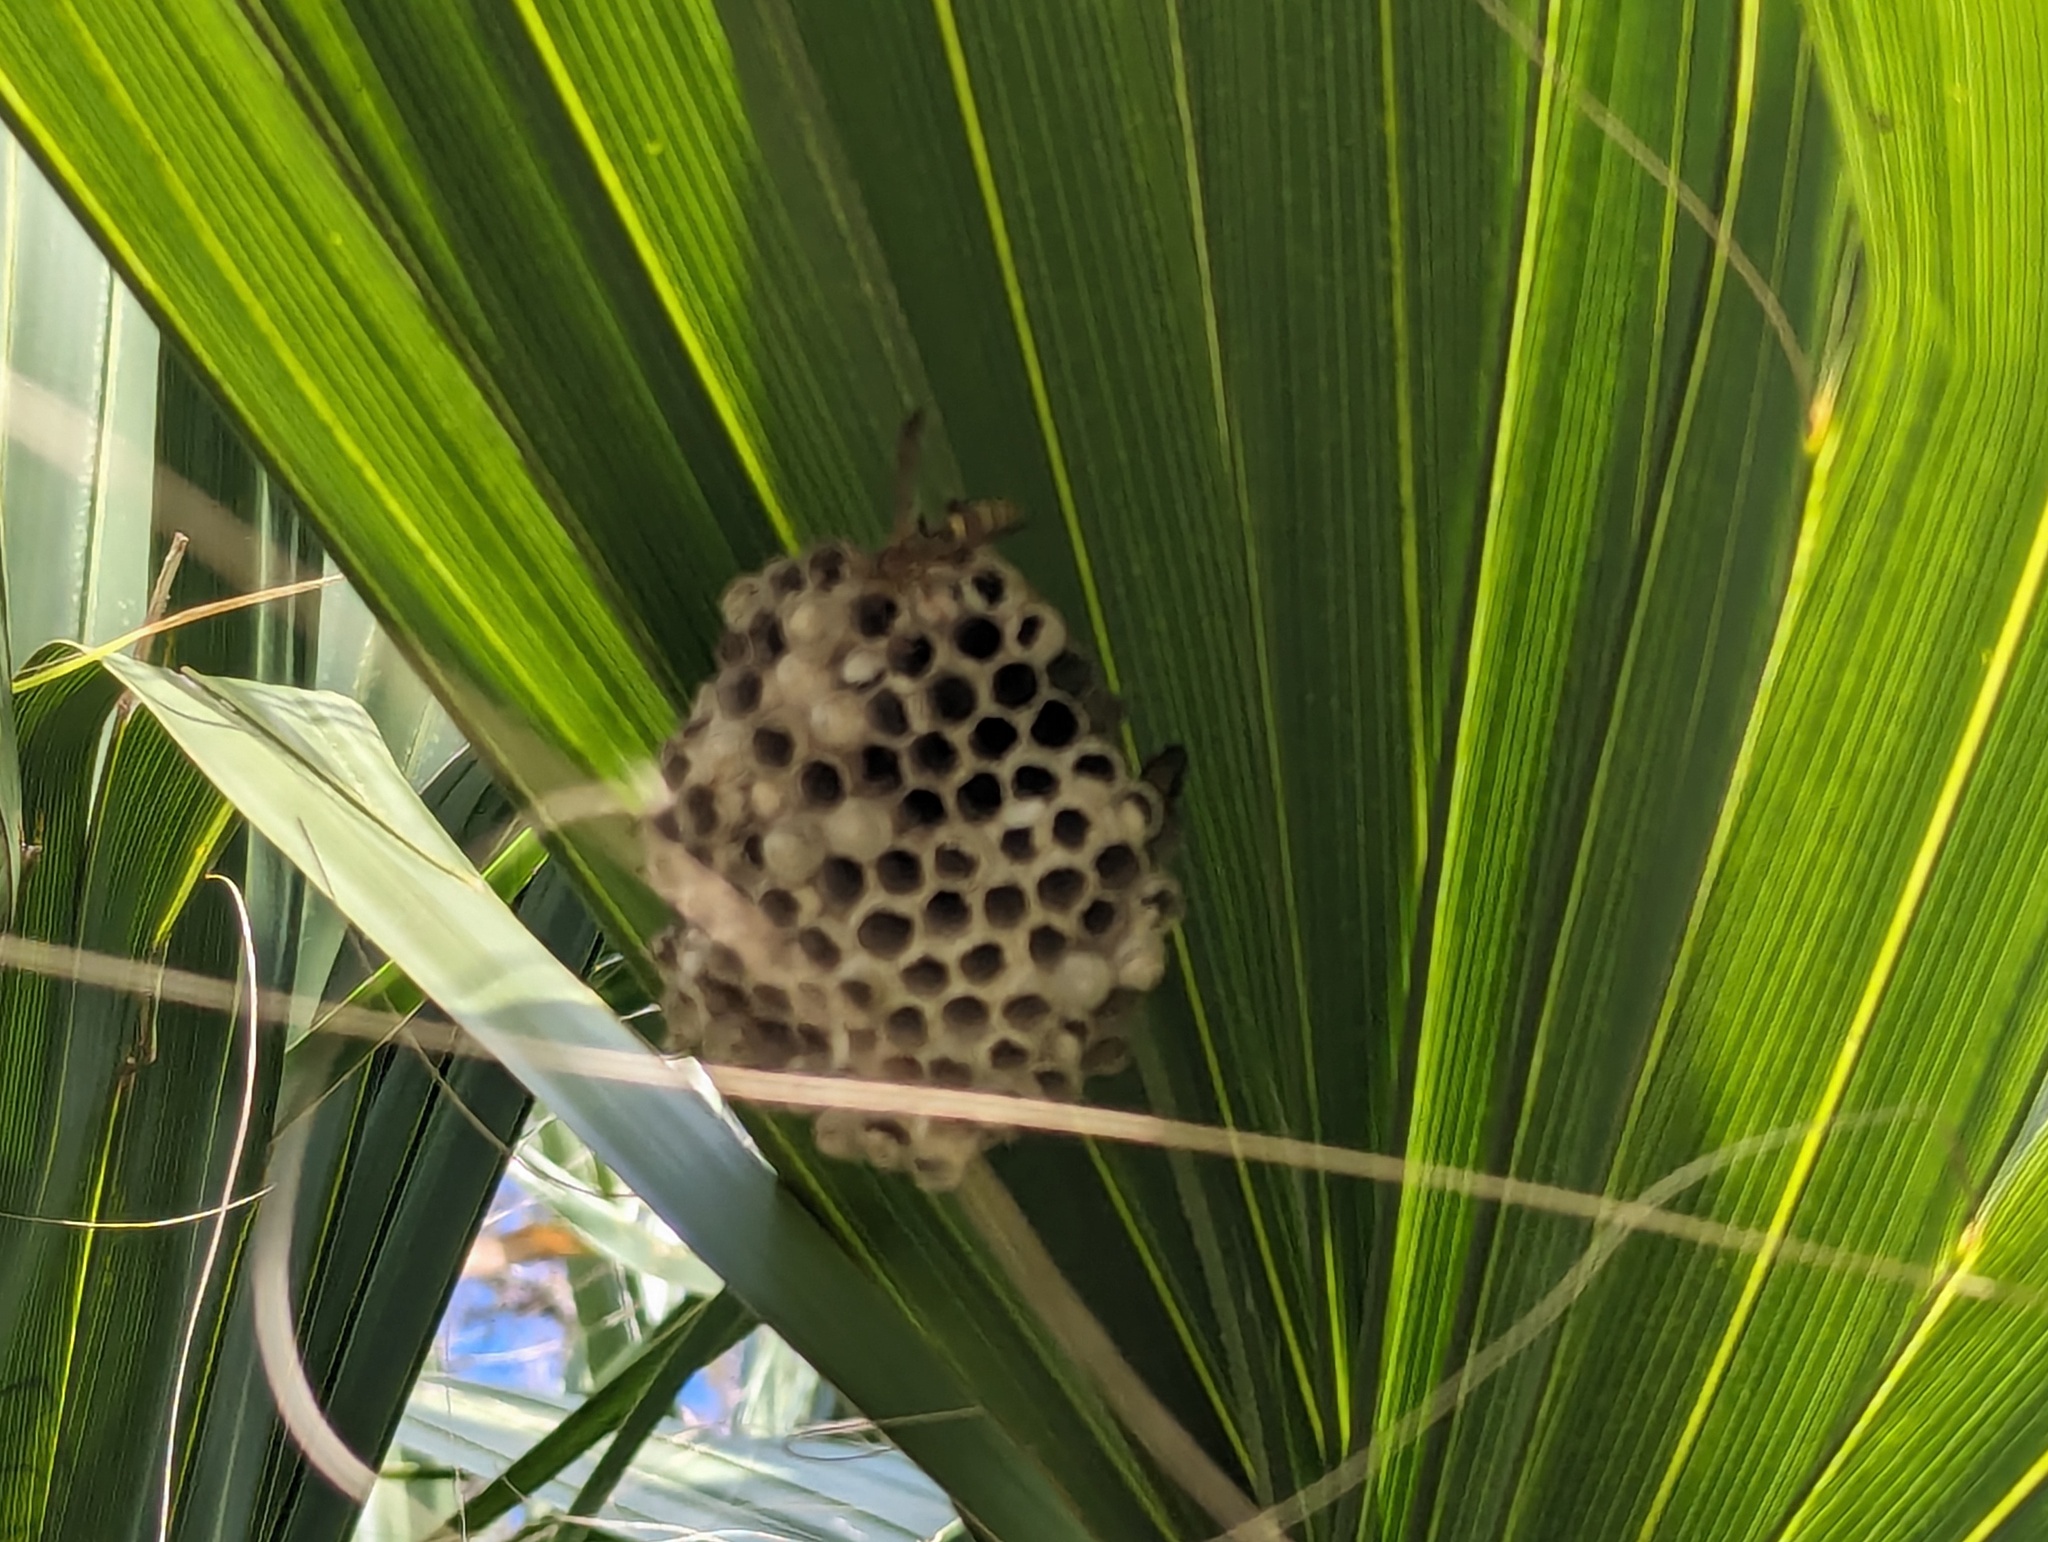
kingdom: Animalia
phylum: Arthropoda
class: Insecta
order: Hymenoptera
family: Eumenidae
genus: Polistes
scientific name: Polistes
